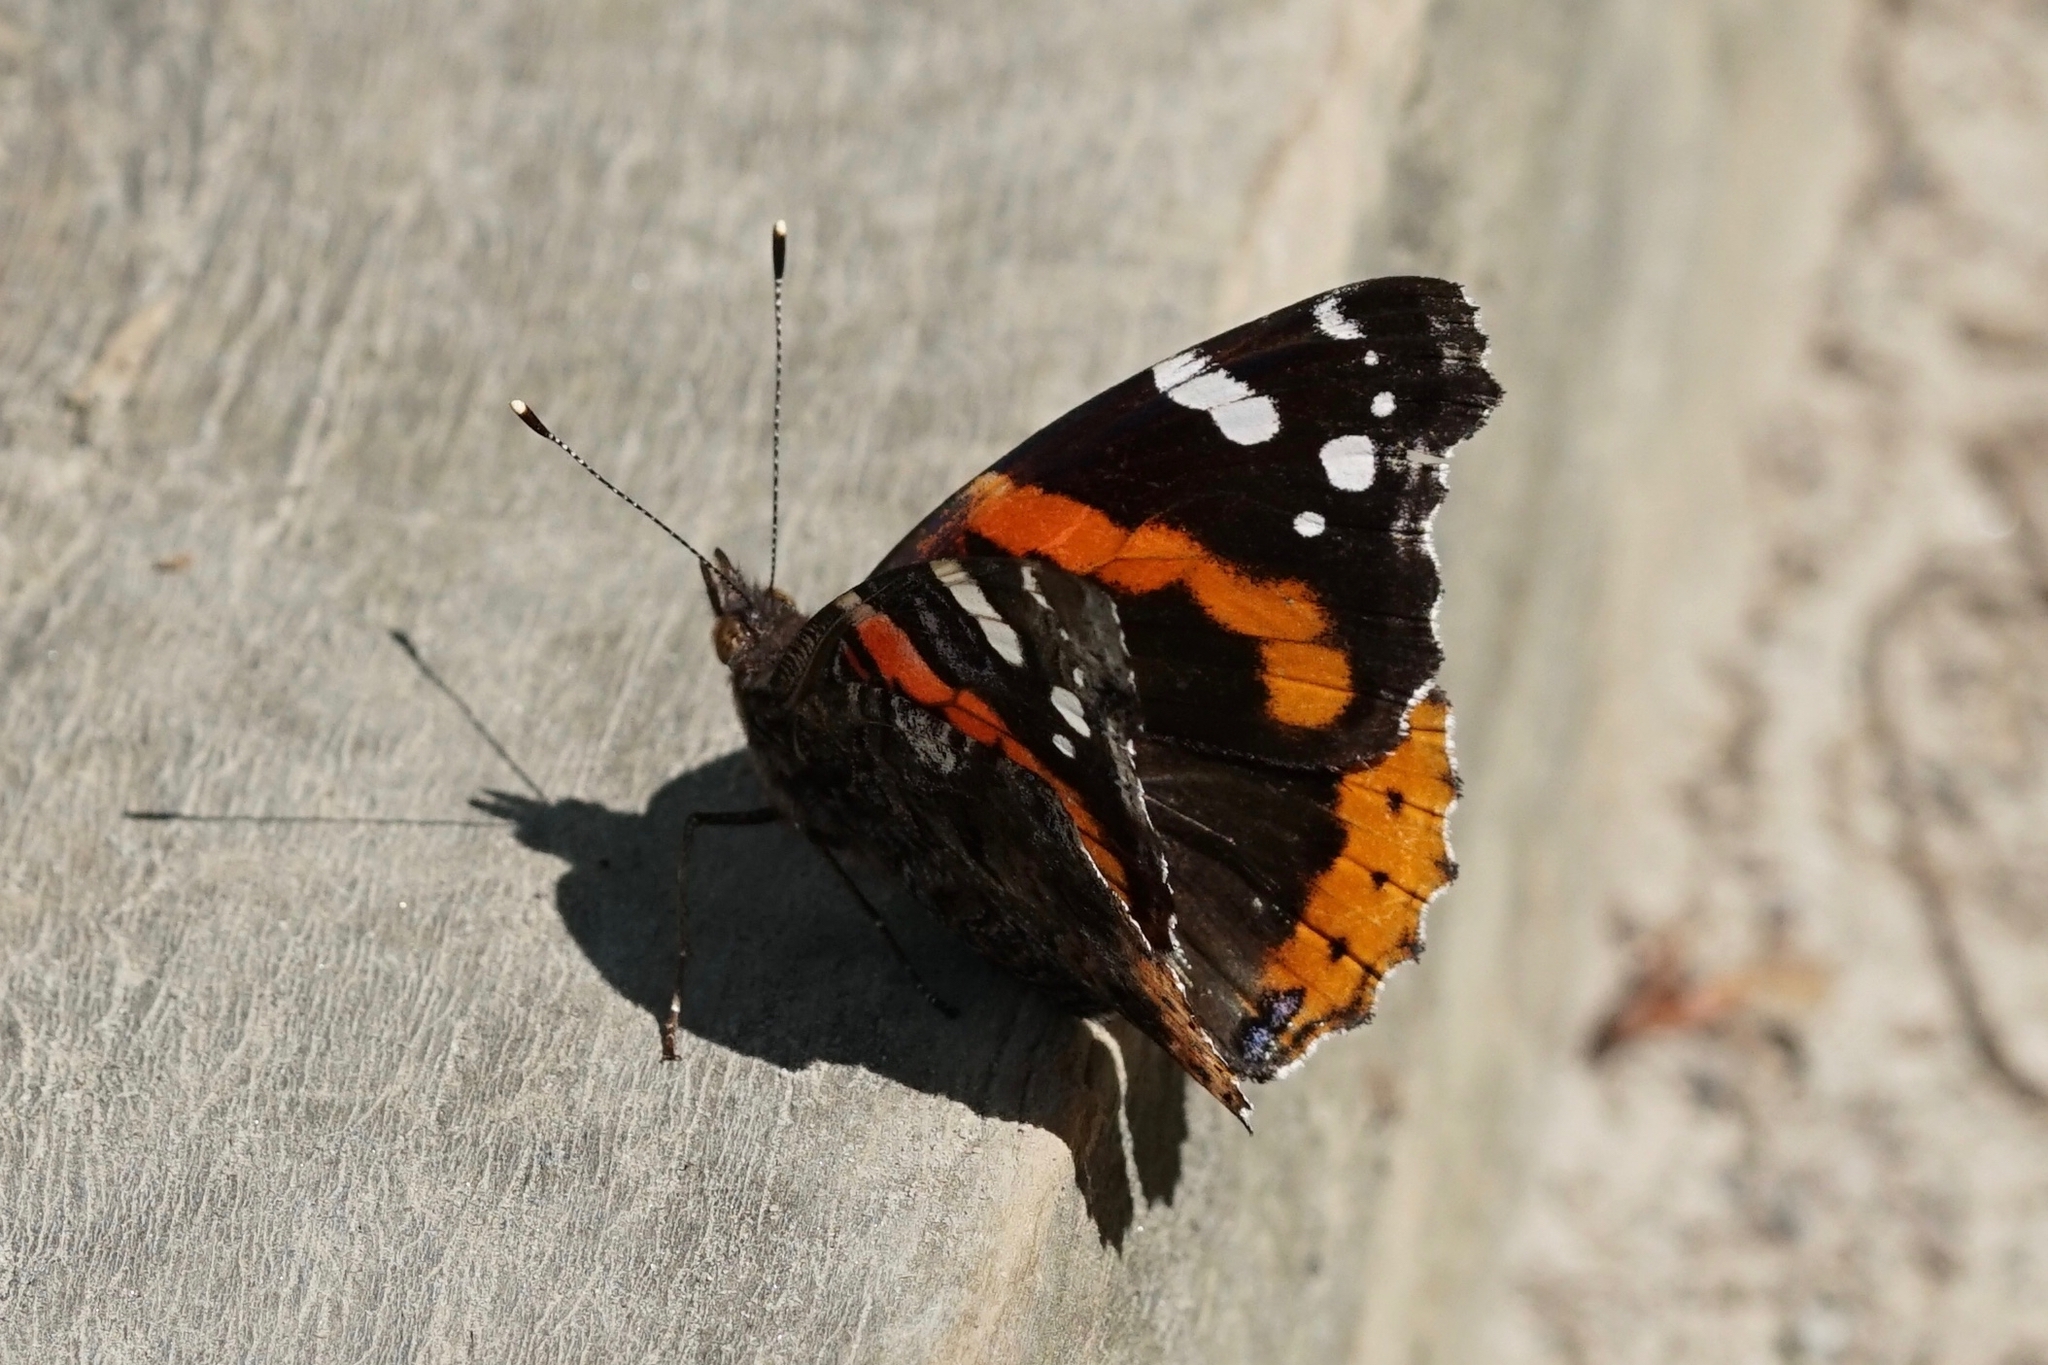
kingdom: Animalia
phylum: Arthropoda
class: Insecta
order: Lepidoptera
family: Nymphalidae
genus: Vanessa
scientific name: Vanessa atalanta
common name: Red admiral
